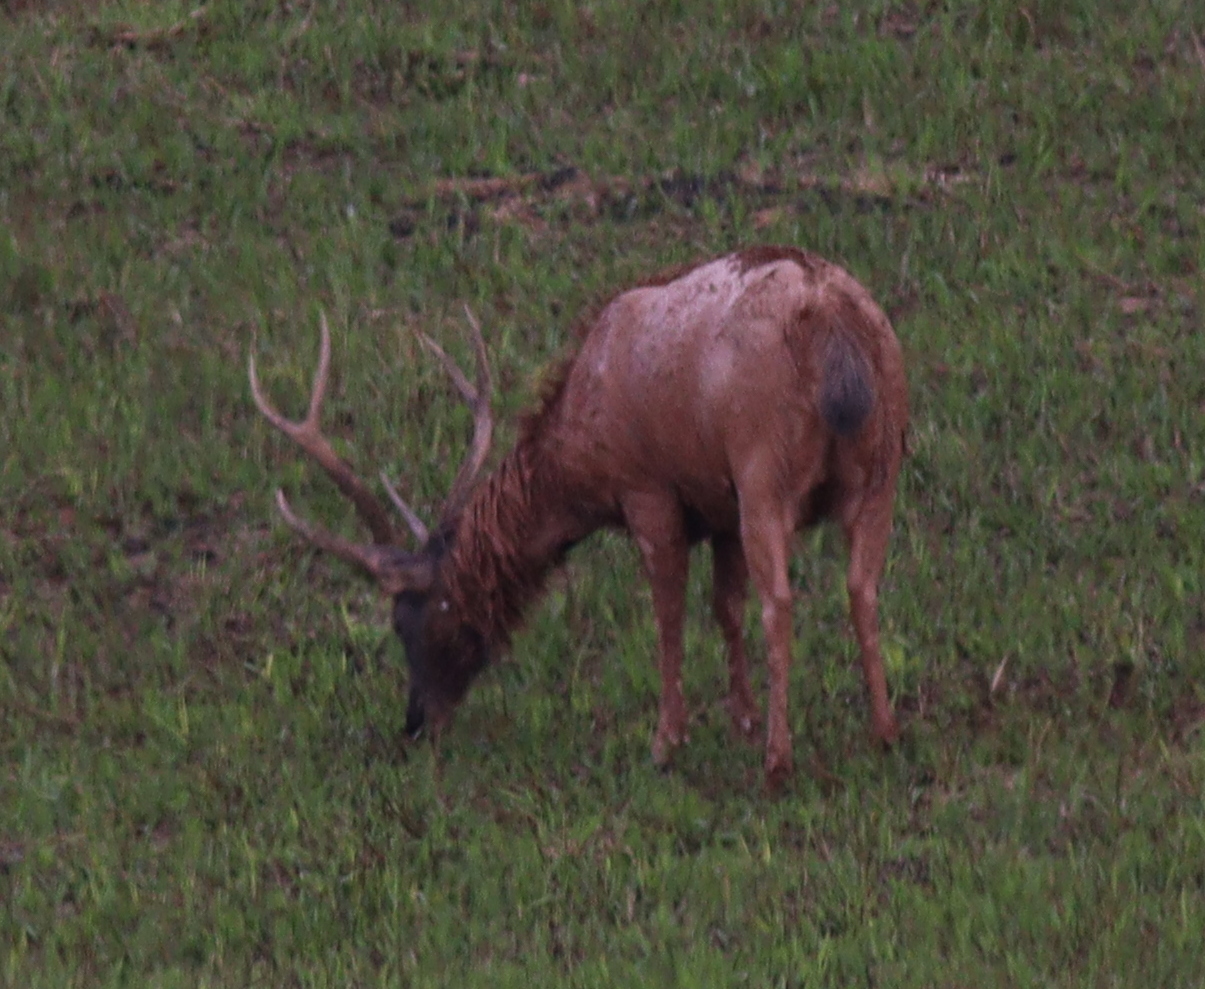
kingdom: Animalia
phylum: Chordata
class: Mammalia
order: Artiodactyla
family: Cervidae
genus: Rusa
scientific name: Rusa unicolor
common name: Sambar
